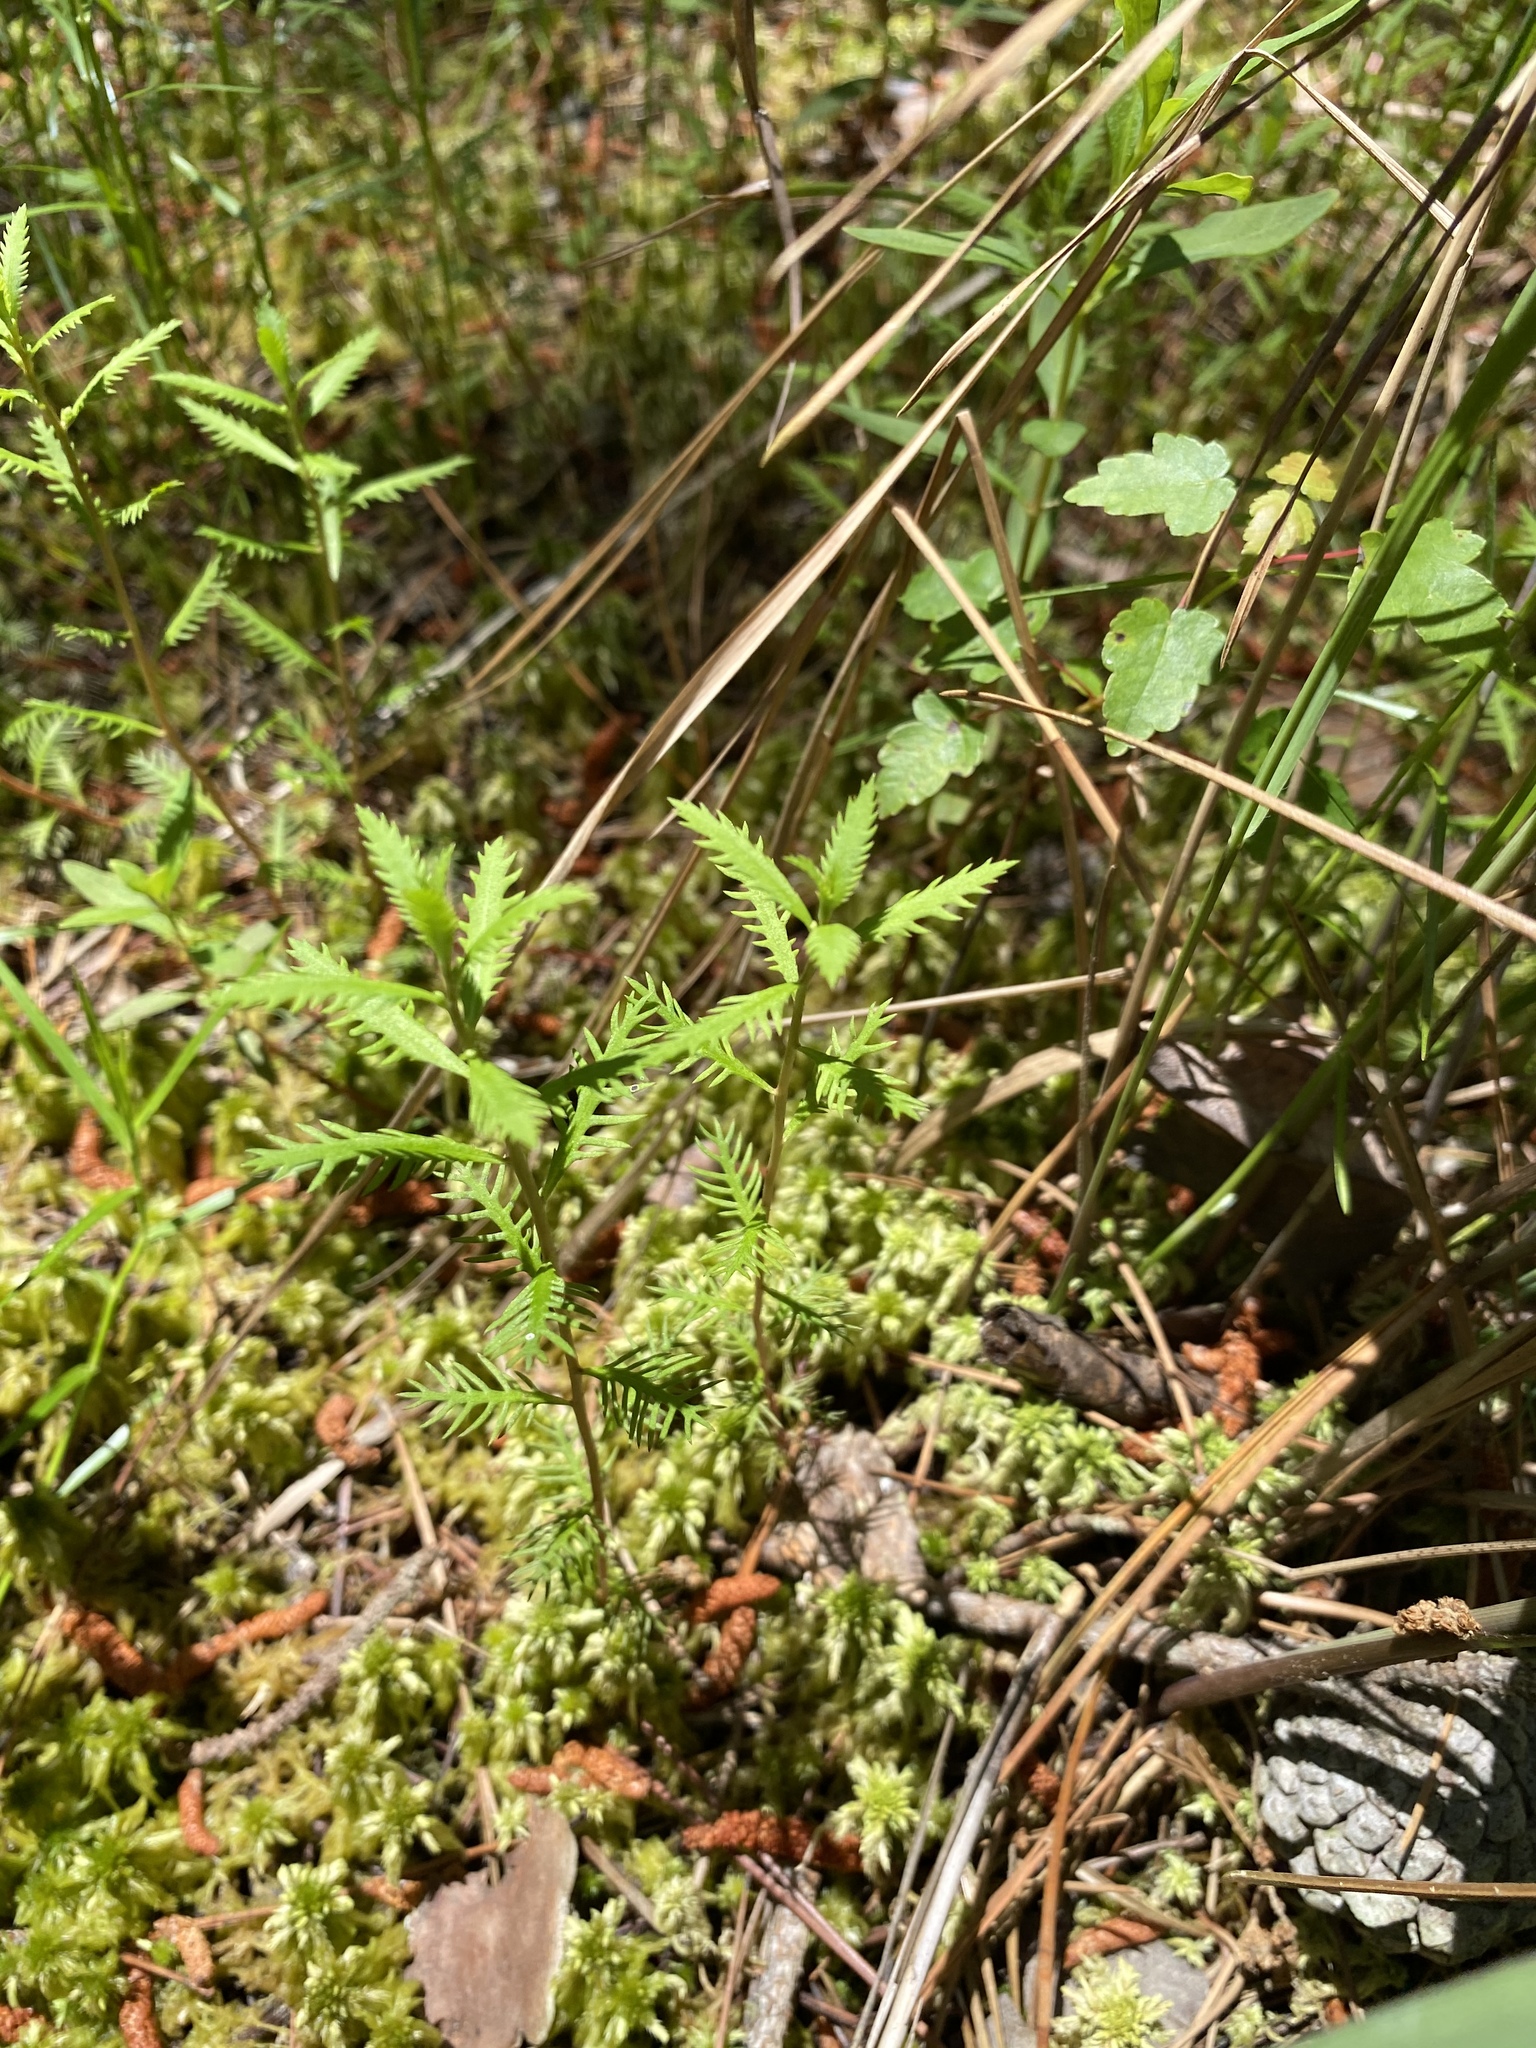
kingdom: Plantae
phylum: Tracheophyta
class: Magnoliopsida
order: Saxifragales
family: Haloragaceae
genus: Proserpinaca
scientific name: Proserpinaca pectinata
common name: Comb-leaved mermaidweed
